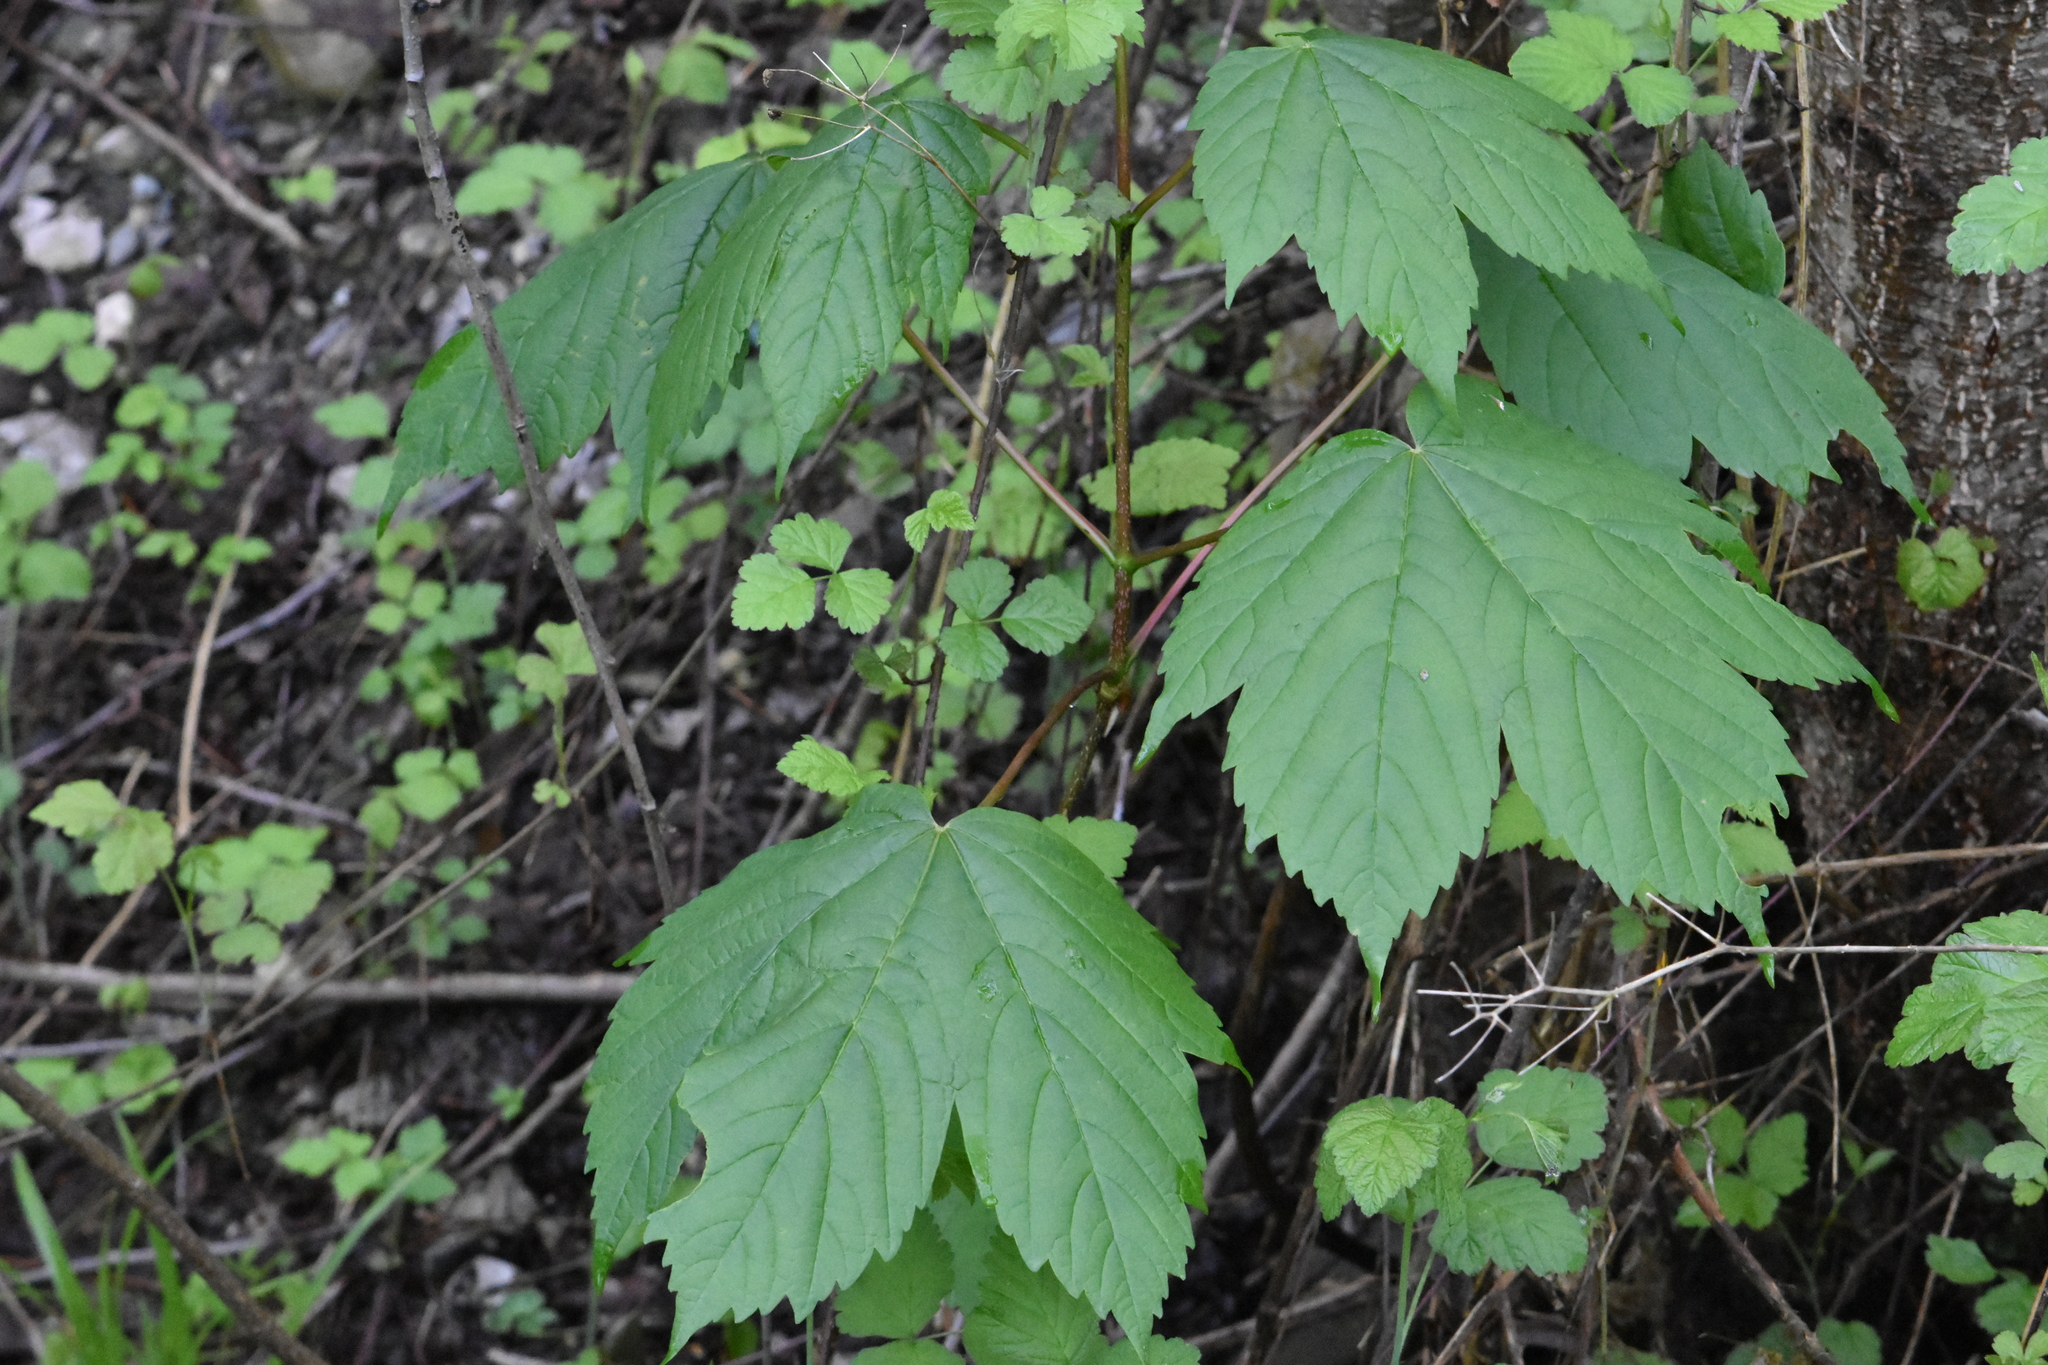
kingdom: Plantae
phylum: Tracheophyta
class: Magnoliopsida
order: Sapindales
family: Sapindaceae
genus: Acer
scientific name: Acer pseudoplatanus
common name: Sycamore
